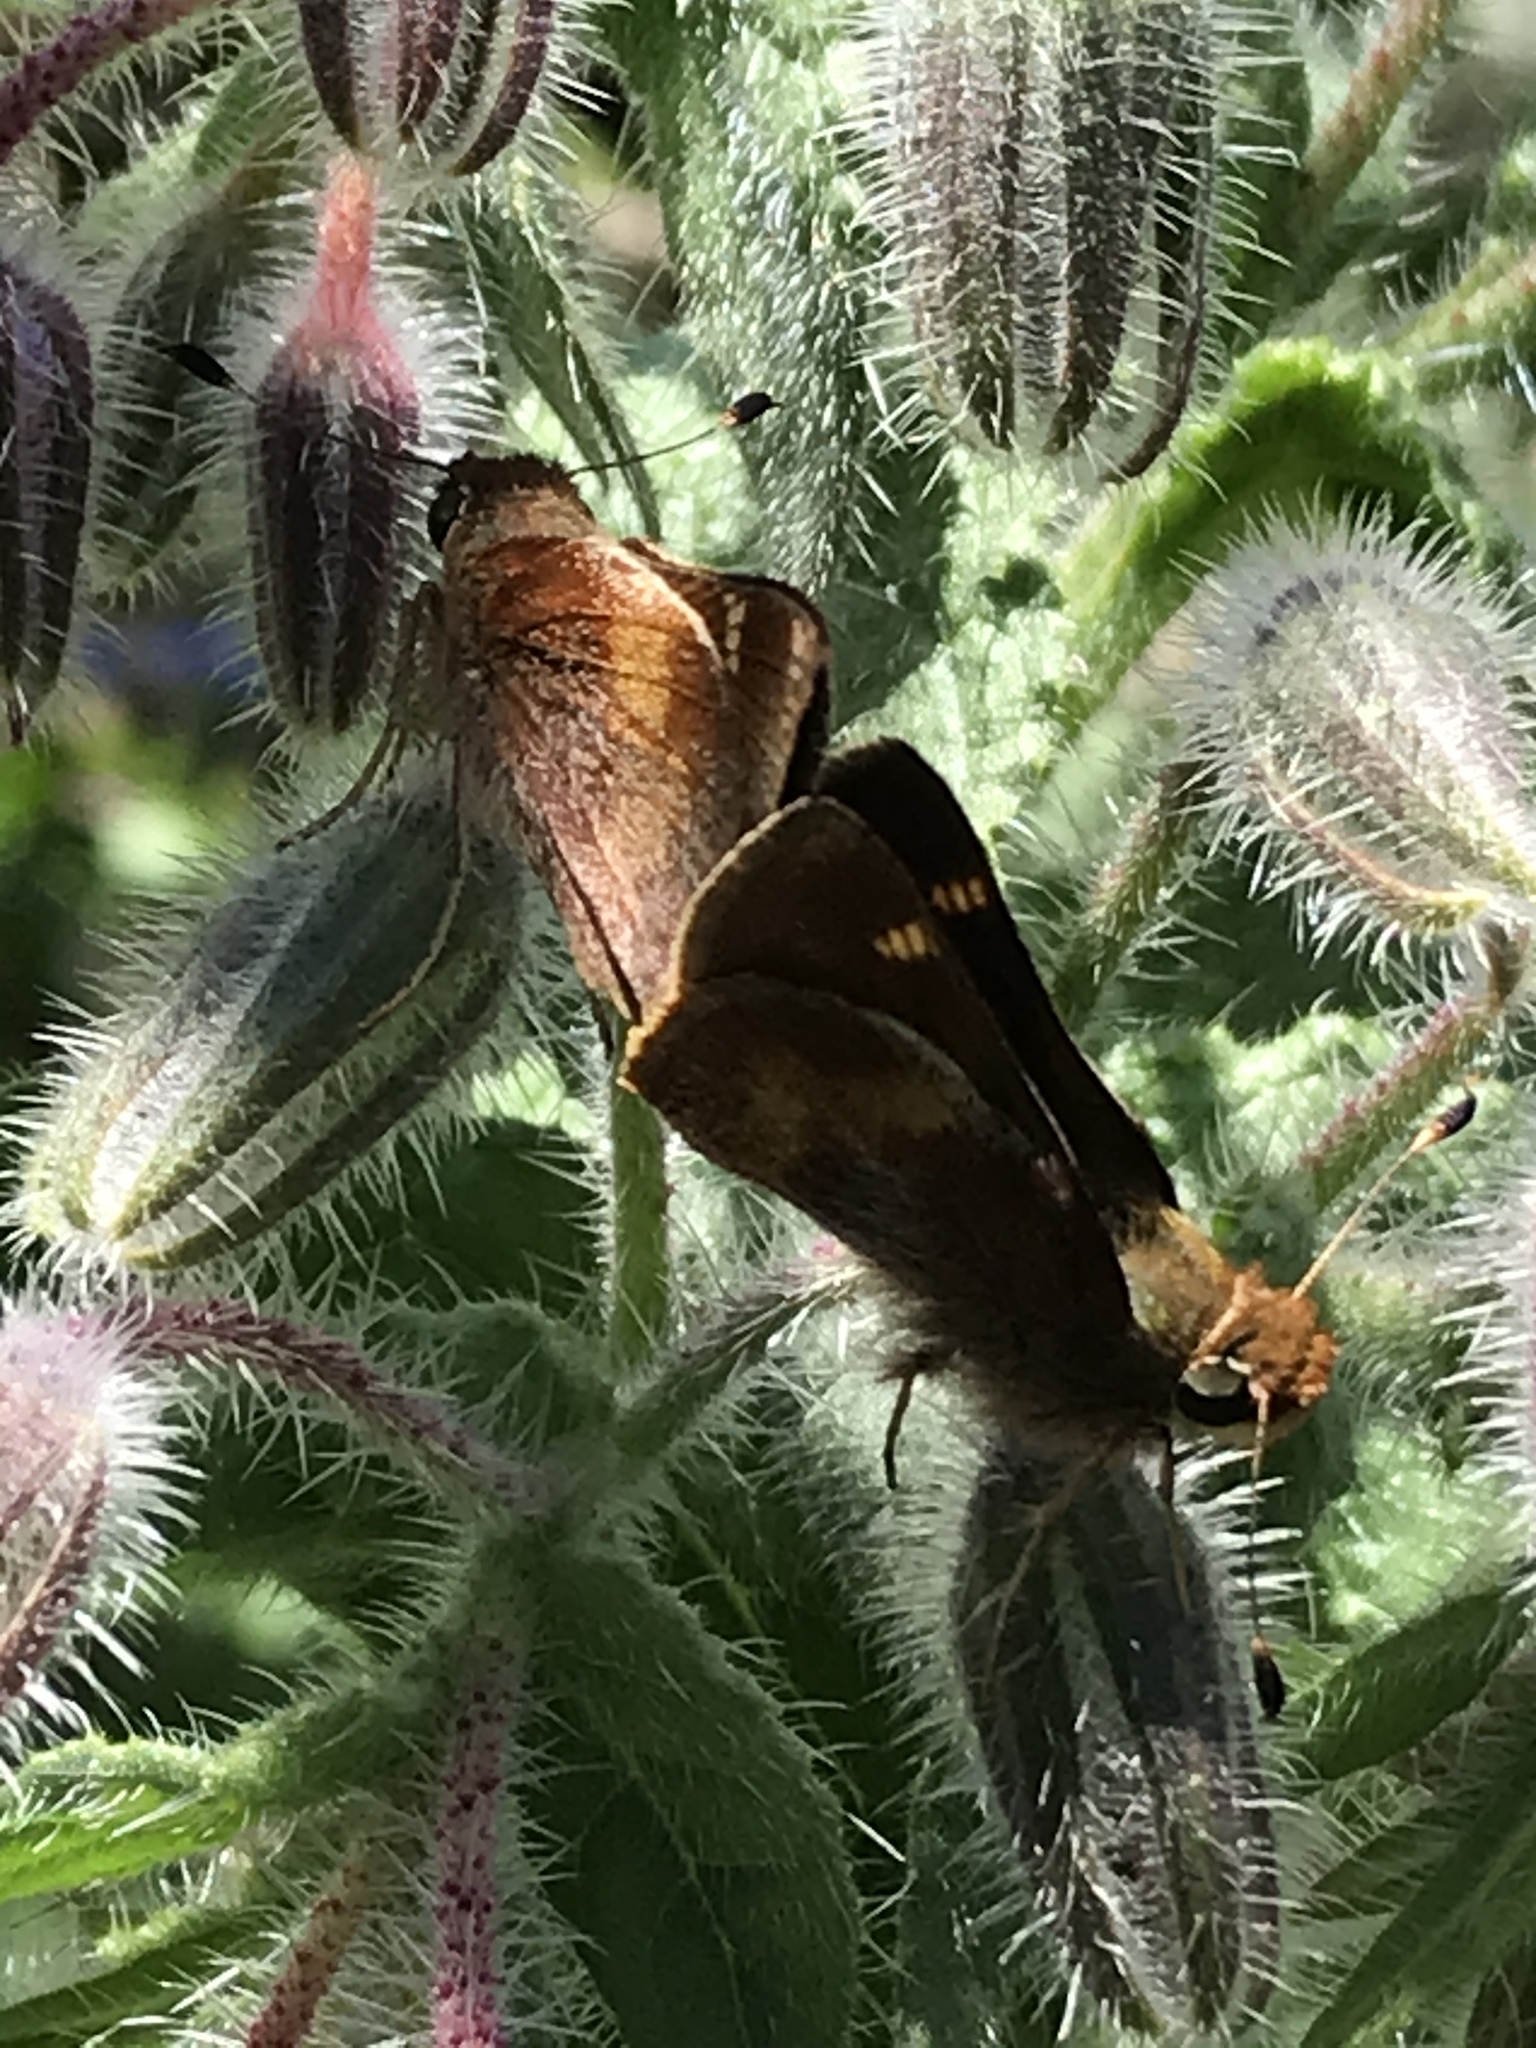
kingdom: Animalia
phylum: Arthropoda
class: Insecta
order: Lepidoptera
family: Hesperiidae
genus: Lon
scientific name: Lon melane
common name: Umber skipper
